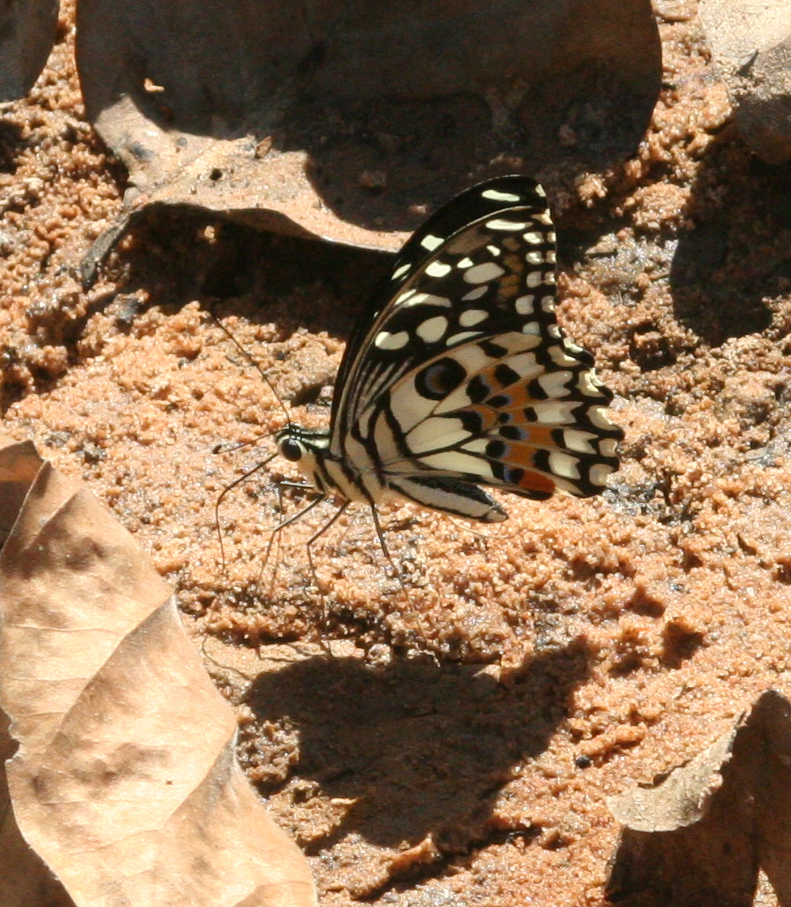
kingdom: Animalia
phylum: Arthropoda
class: Insecta
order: Lepidoptera
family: Papilionidae
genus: Papilio
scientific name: Papilio demoleus
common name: Lime butterfly
